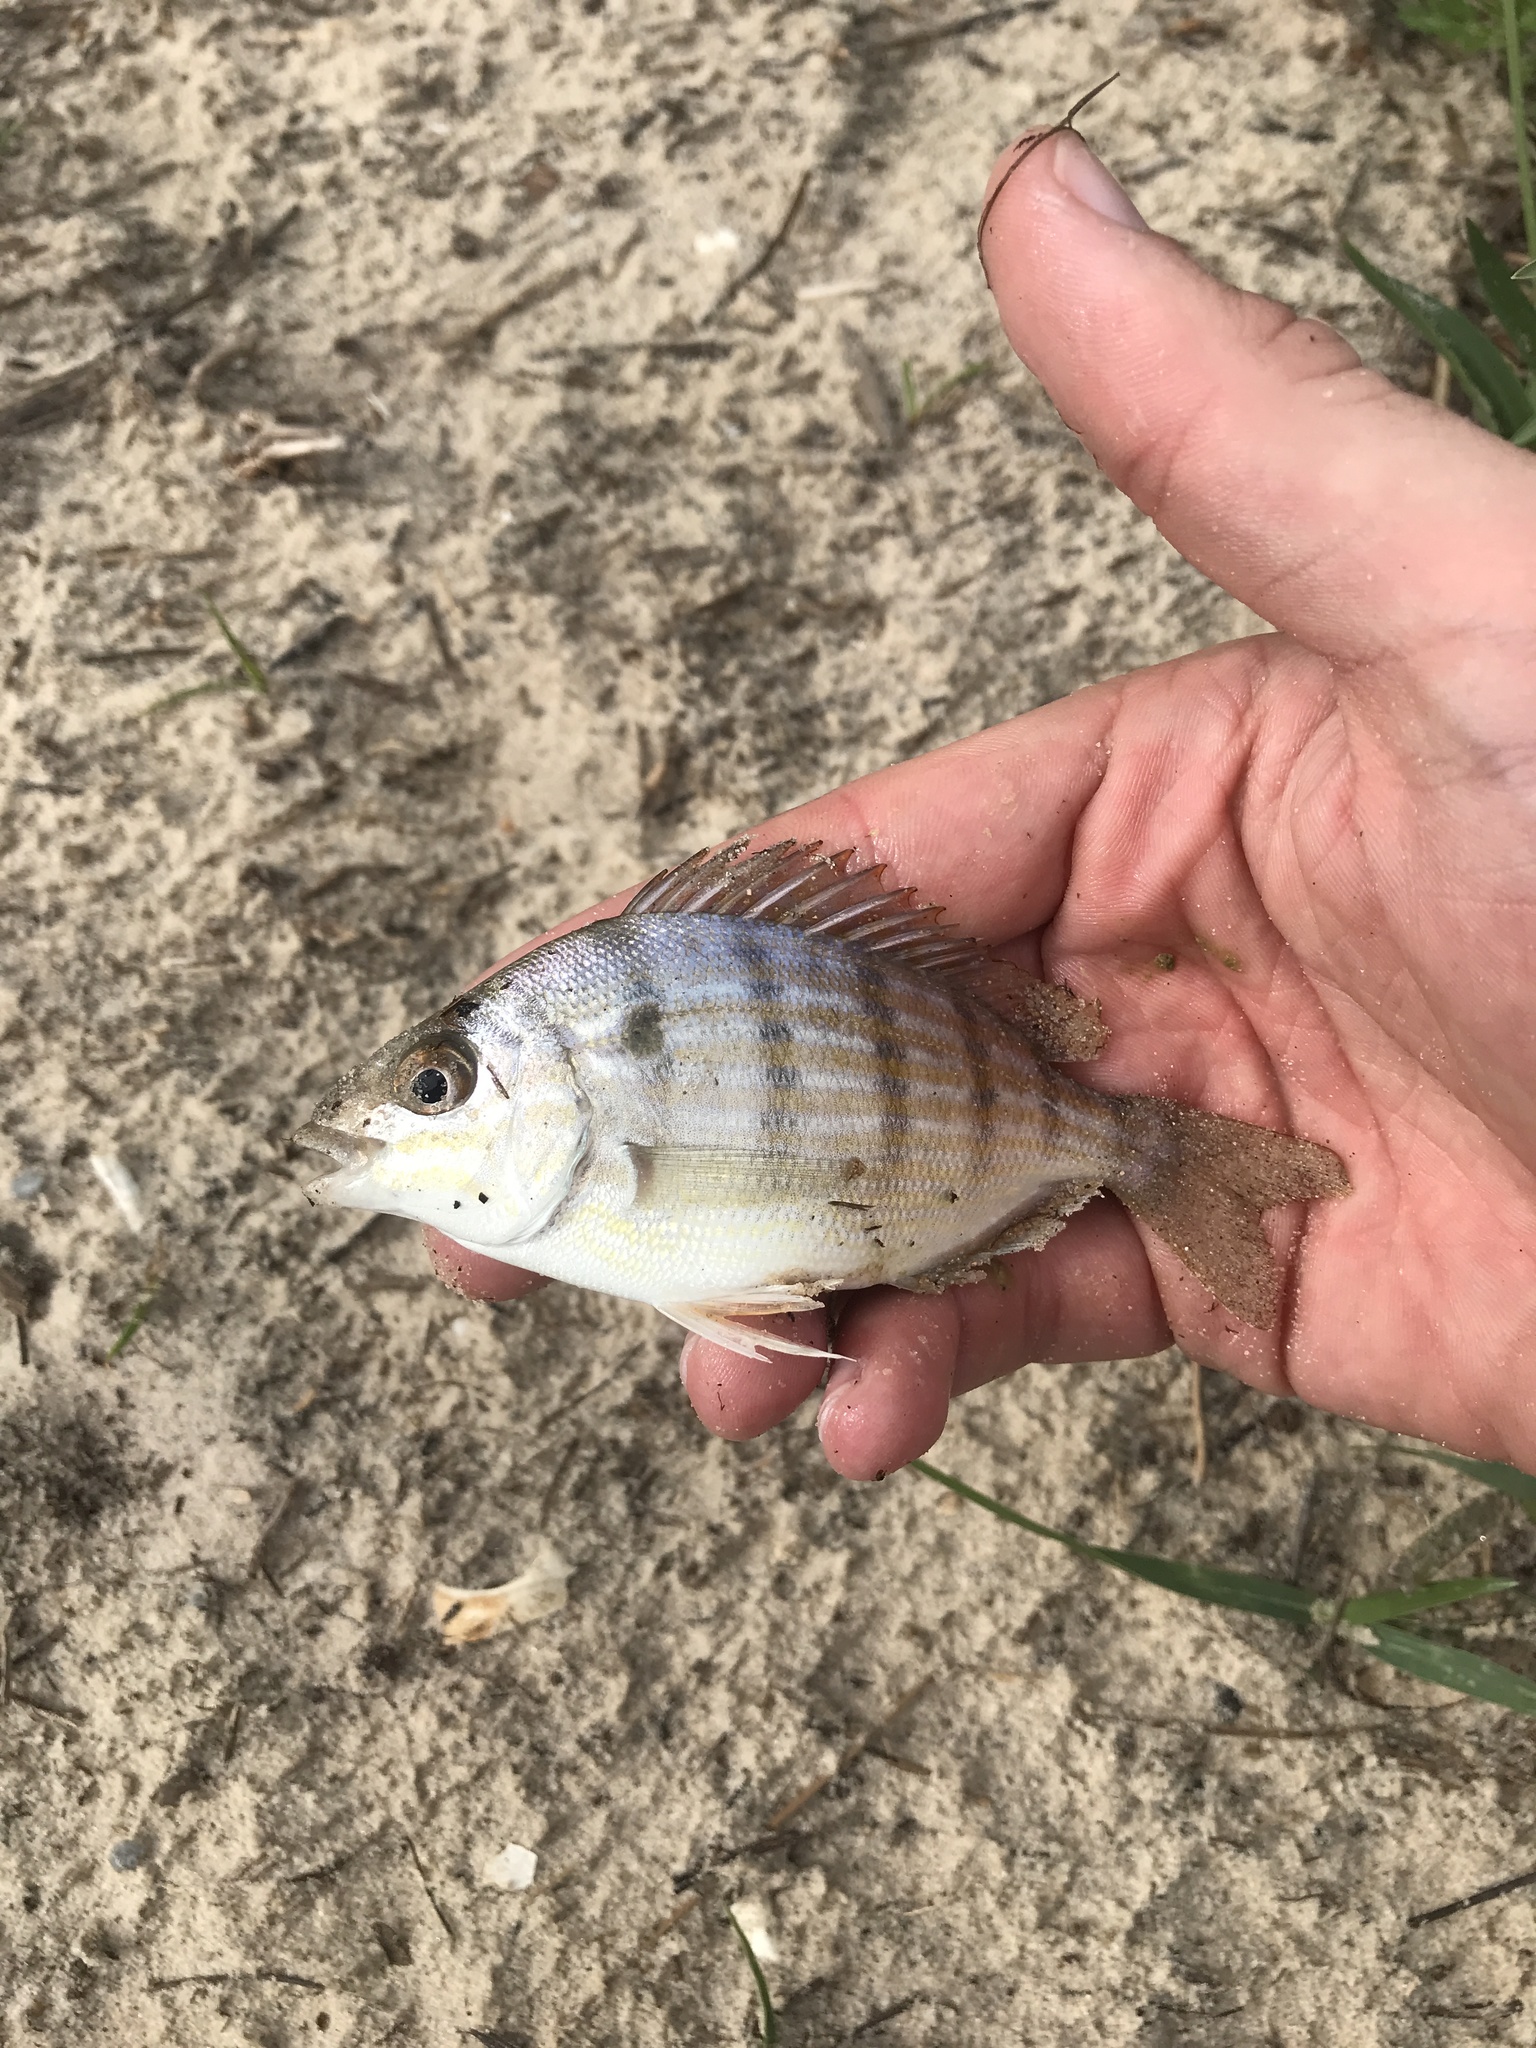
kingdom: Animalia
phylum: Chordata
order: Perciformes
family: Sparidae
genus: Lagodon
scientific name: Lagodon rhomboides
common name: Pinfish
